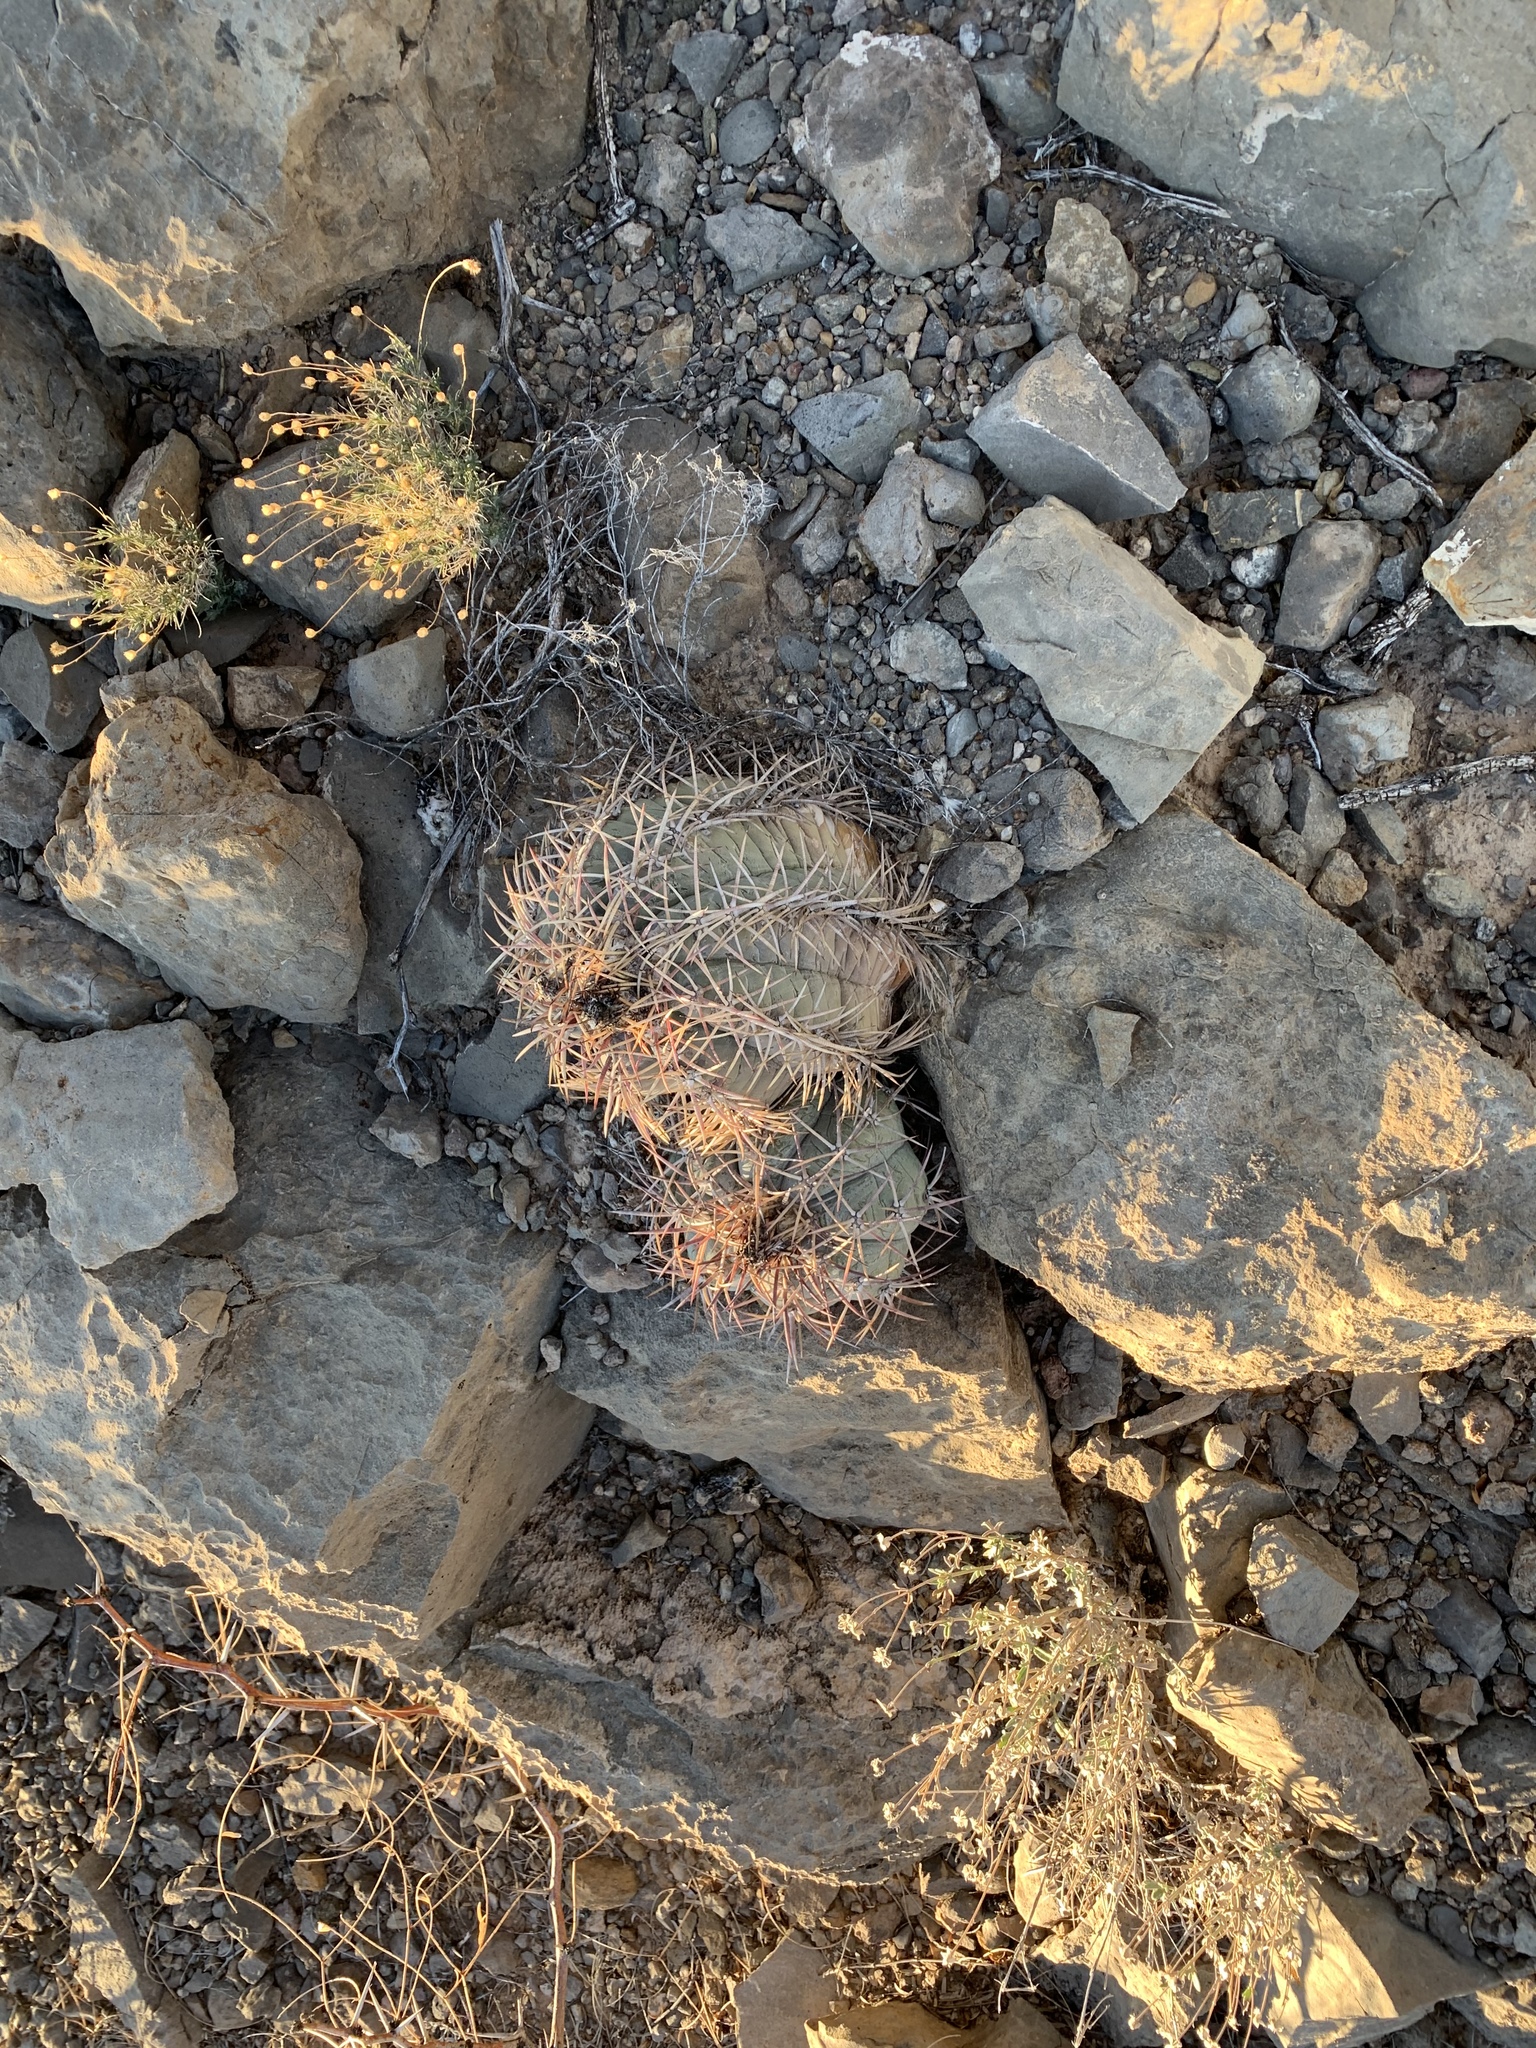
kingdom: Plantae
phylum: Tracheophyta
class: Magnoliopsida
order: Caryophyllales
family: Cactaceae
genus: Echinocactus
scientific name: Echinocactus horizonthalonius
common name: Devilshead
